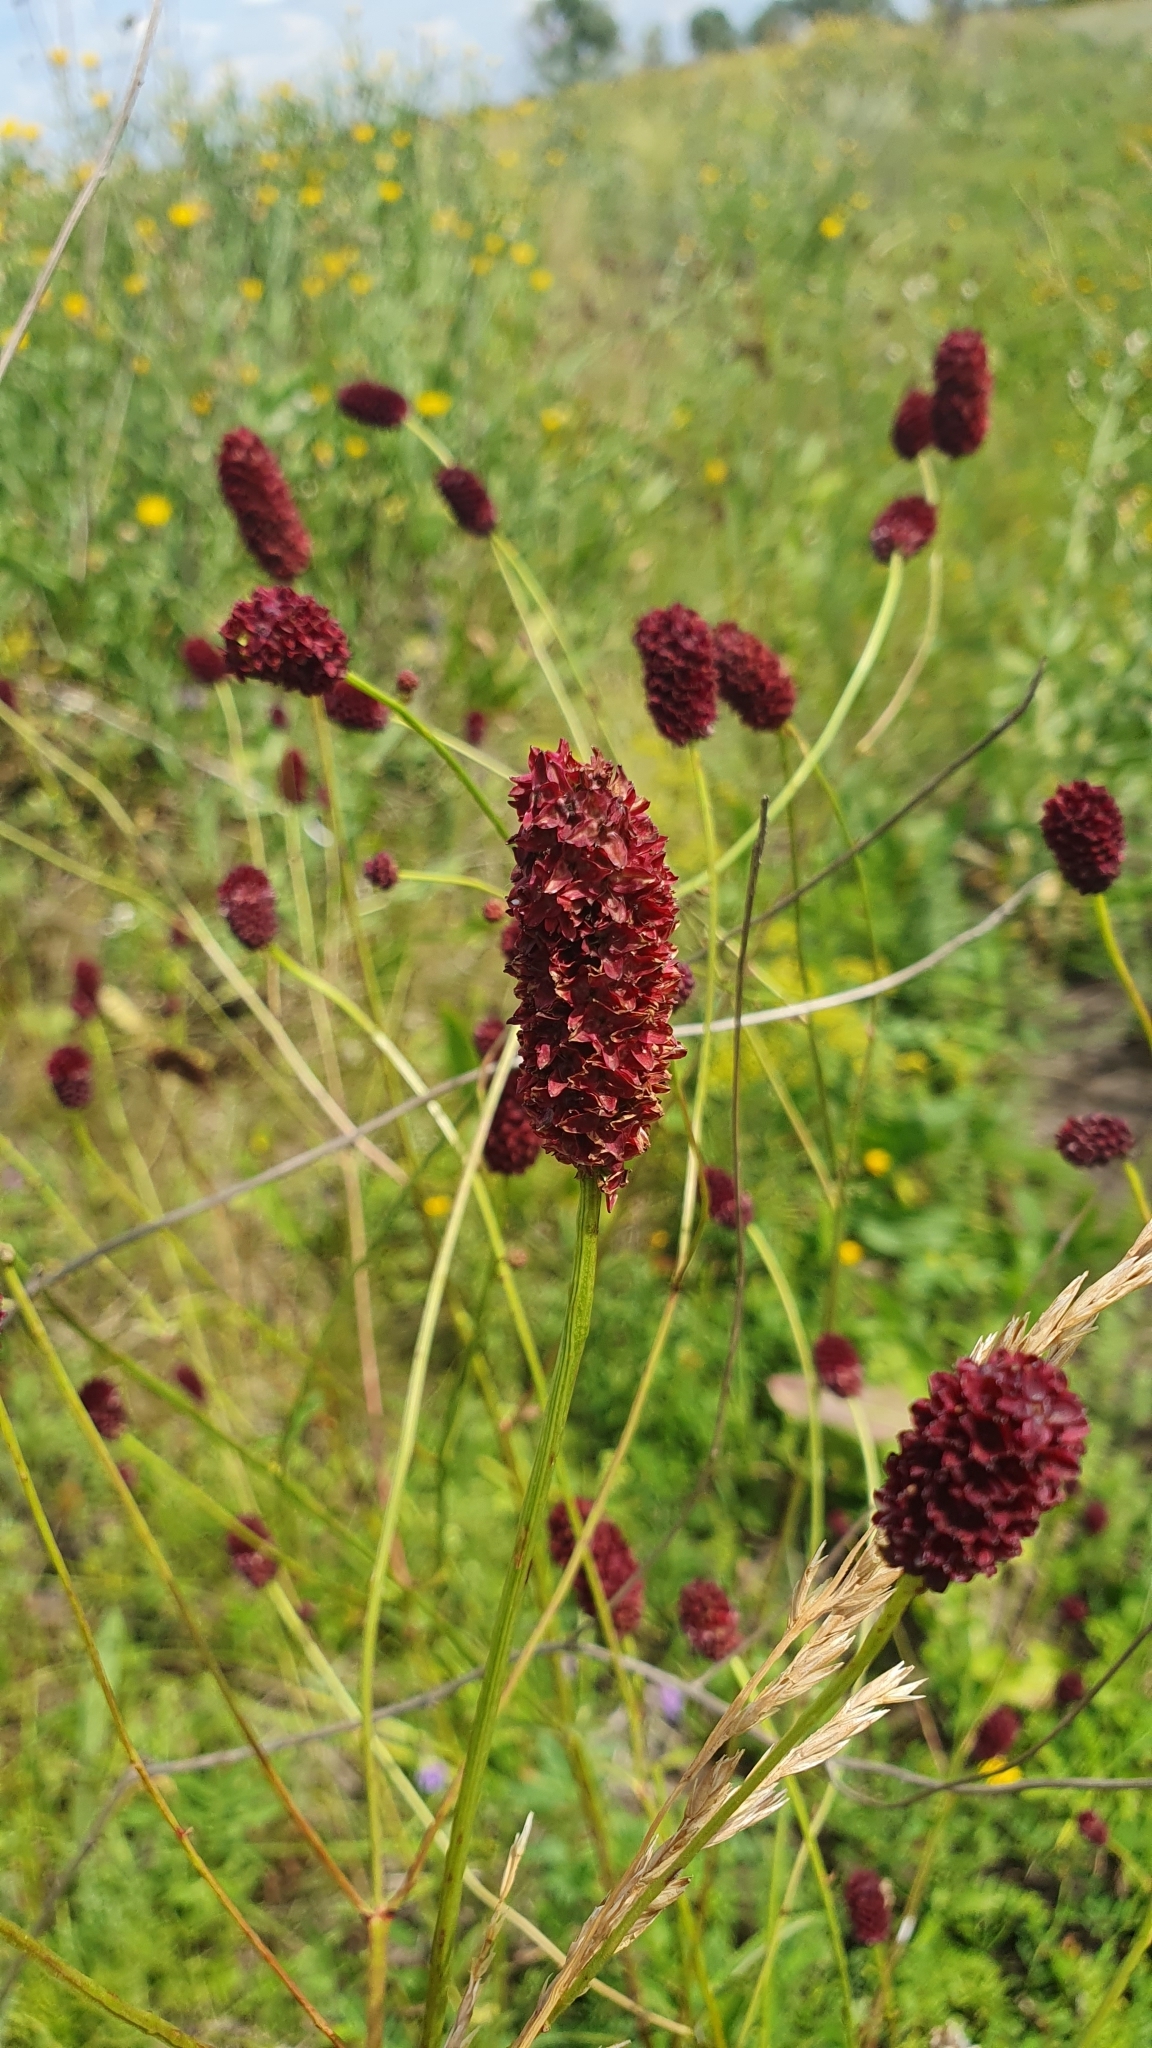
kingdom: Plantae
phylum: Tracheophyta
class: Magnoliopsida
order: Rosales
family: Rosaceae
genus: Sanguisorba
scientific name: Sanguisorba officinalis
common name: Great burnet
